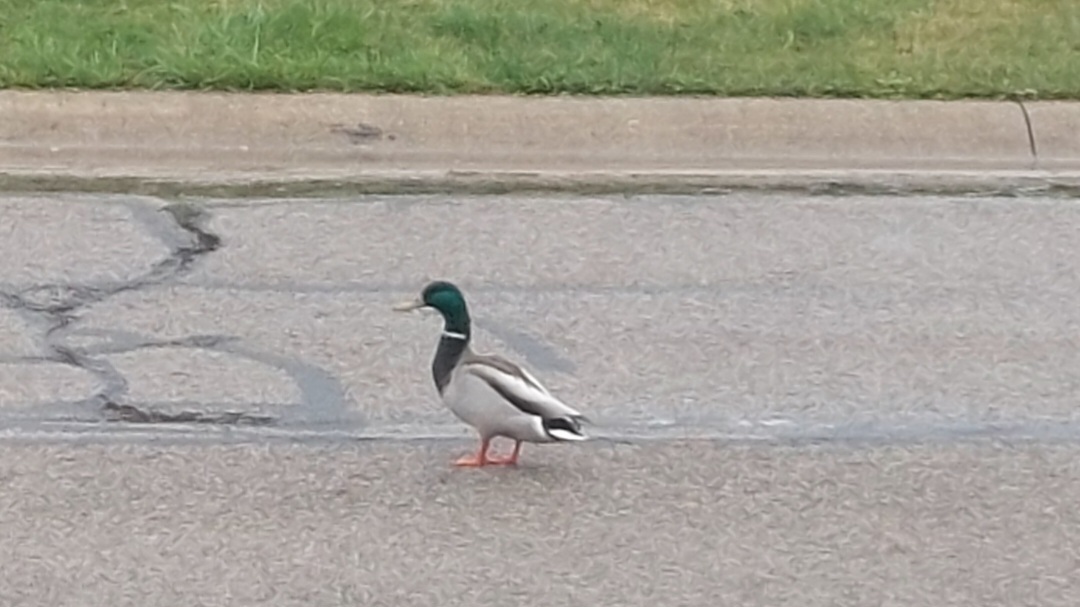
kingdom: Animalia
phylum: Chordata
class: Aves
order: Anseriformes
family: Anatidae
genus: Anas
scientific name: Anas platyrhynchos
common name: Mallard
